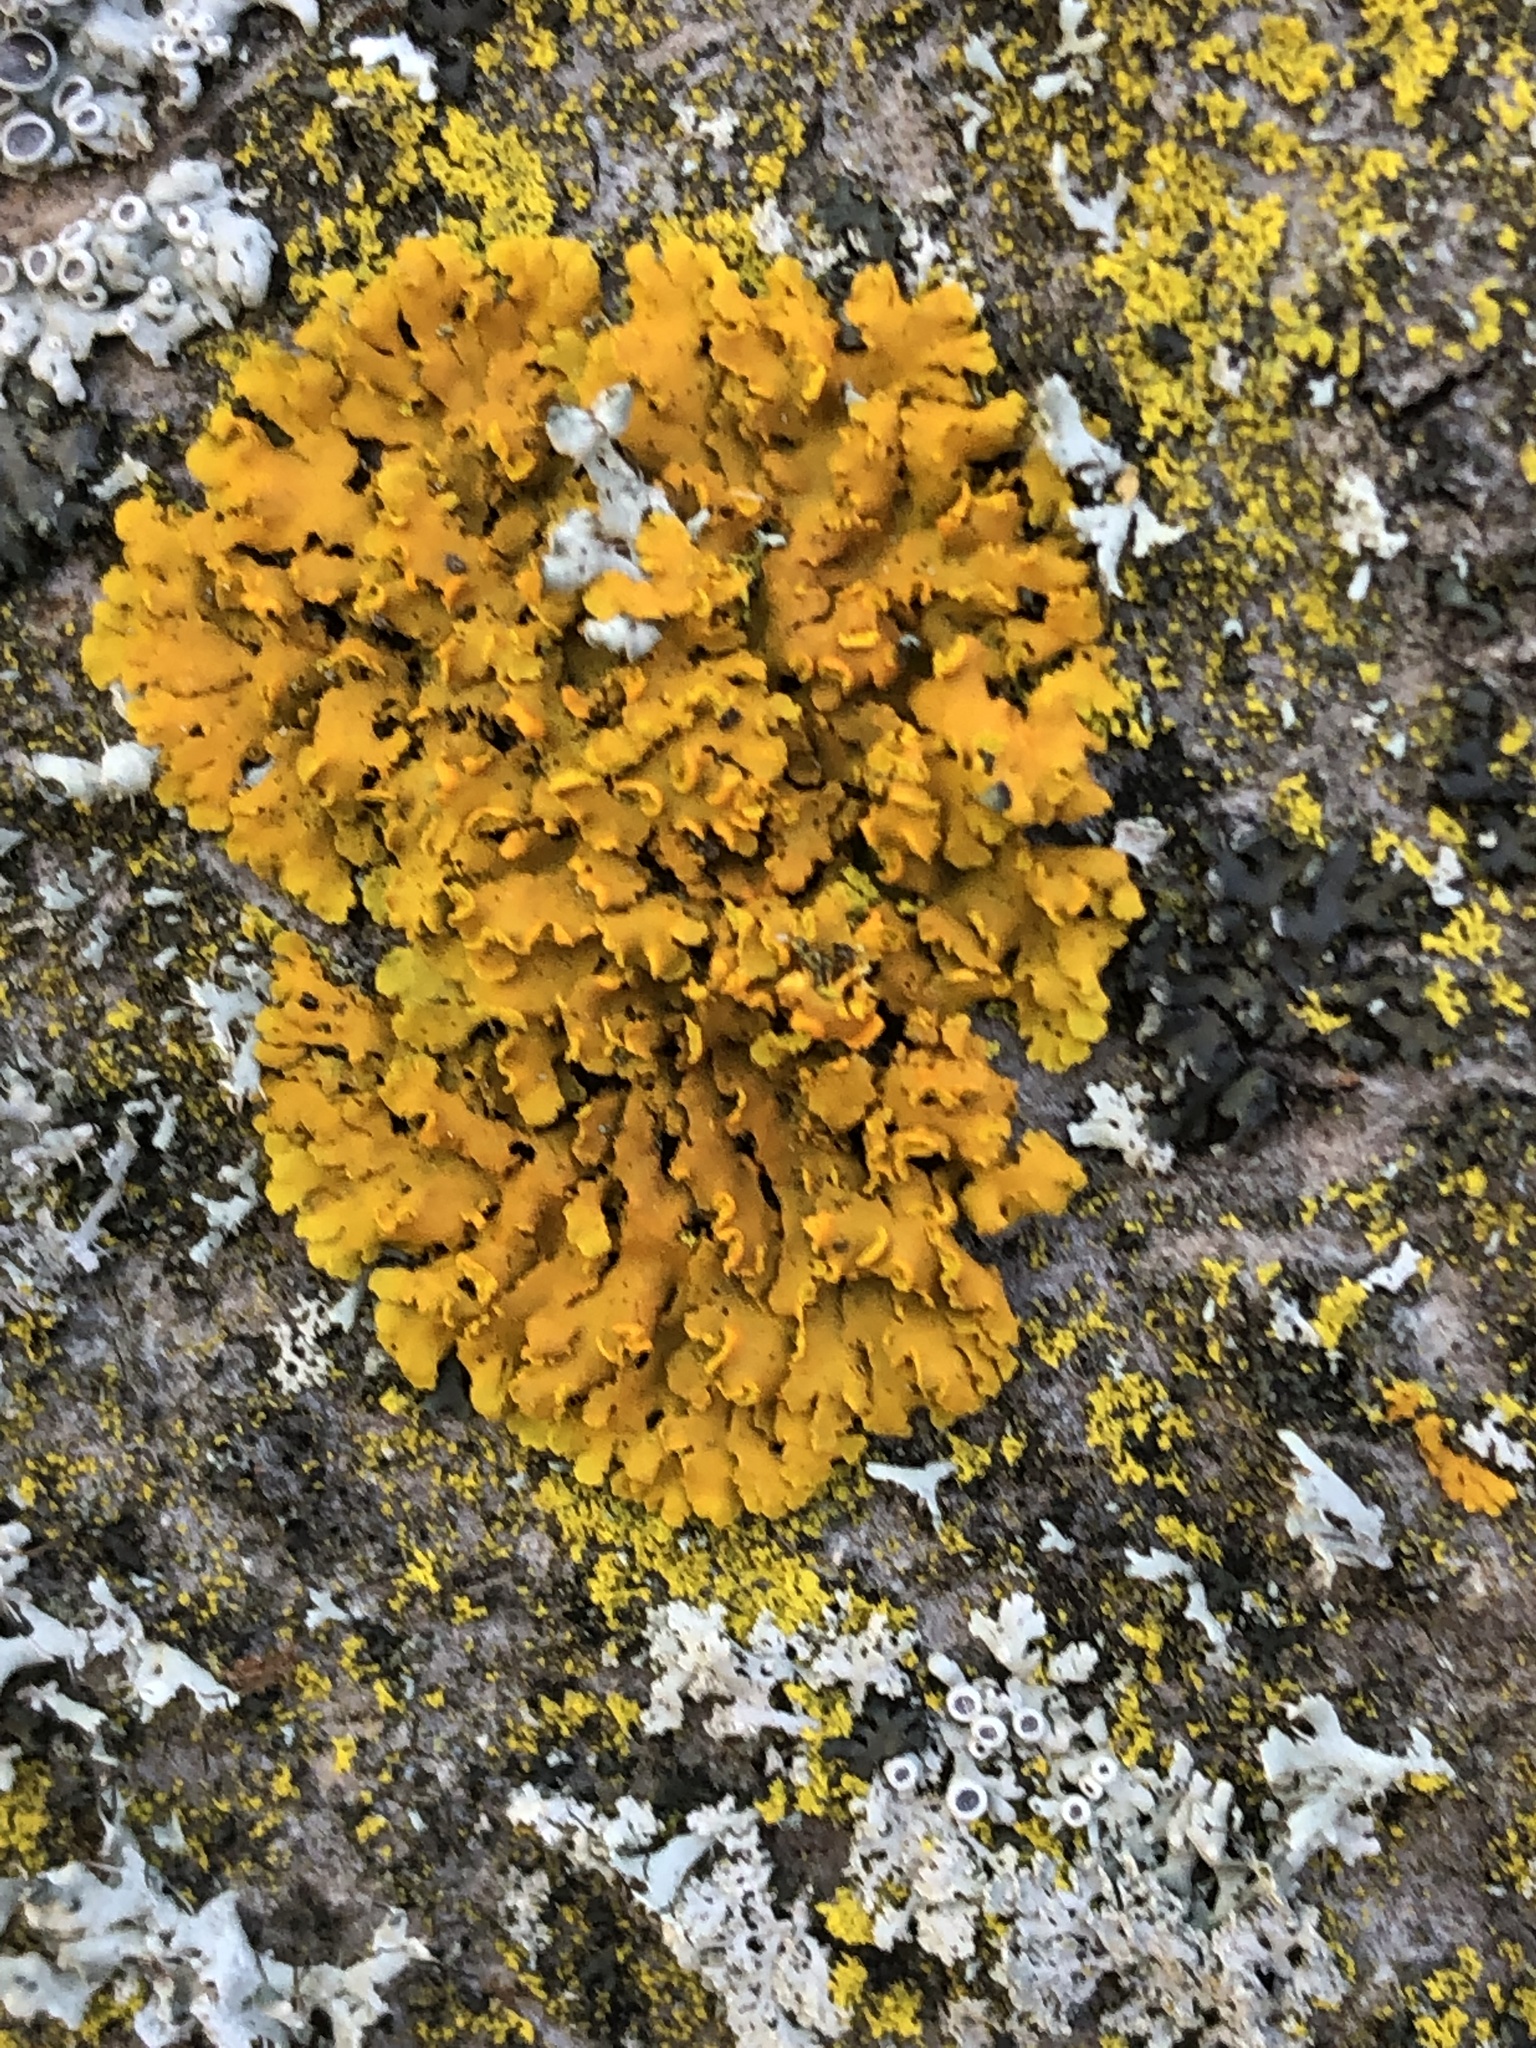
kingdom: Fungi
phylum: Ascomycota
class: Lecanoromycetes
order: Teloschistales
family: Teloschistaceae
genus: Oxneria
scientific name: Oxneria fallax
